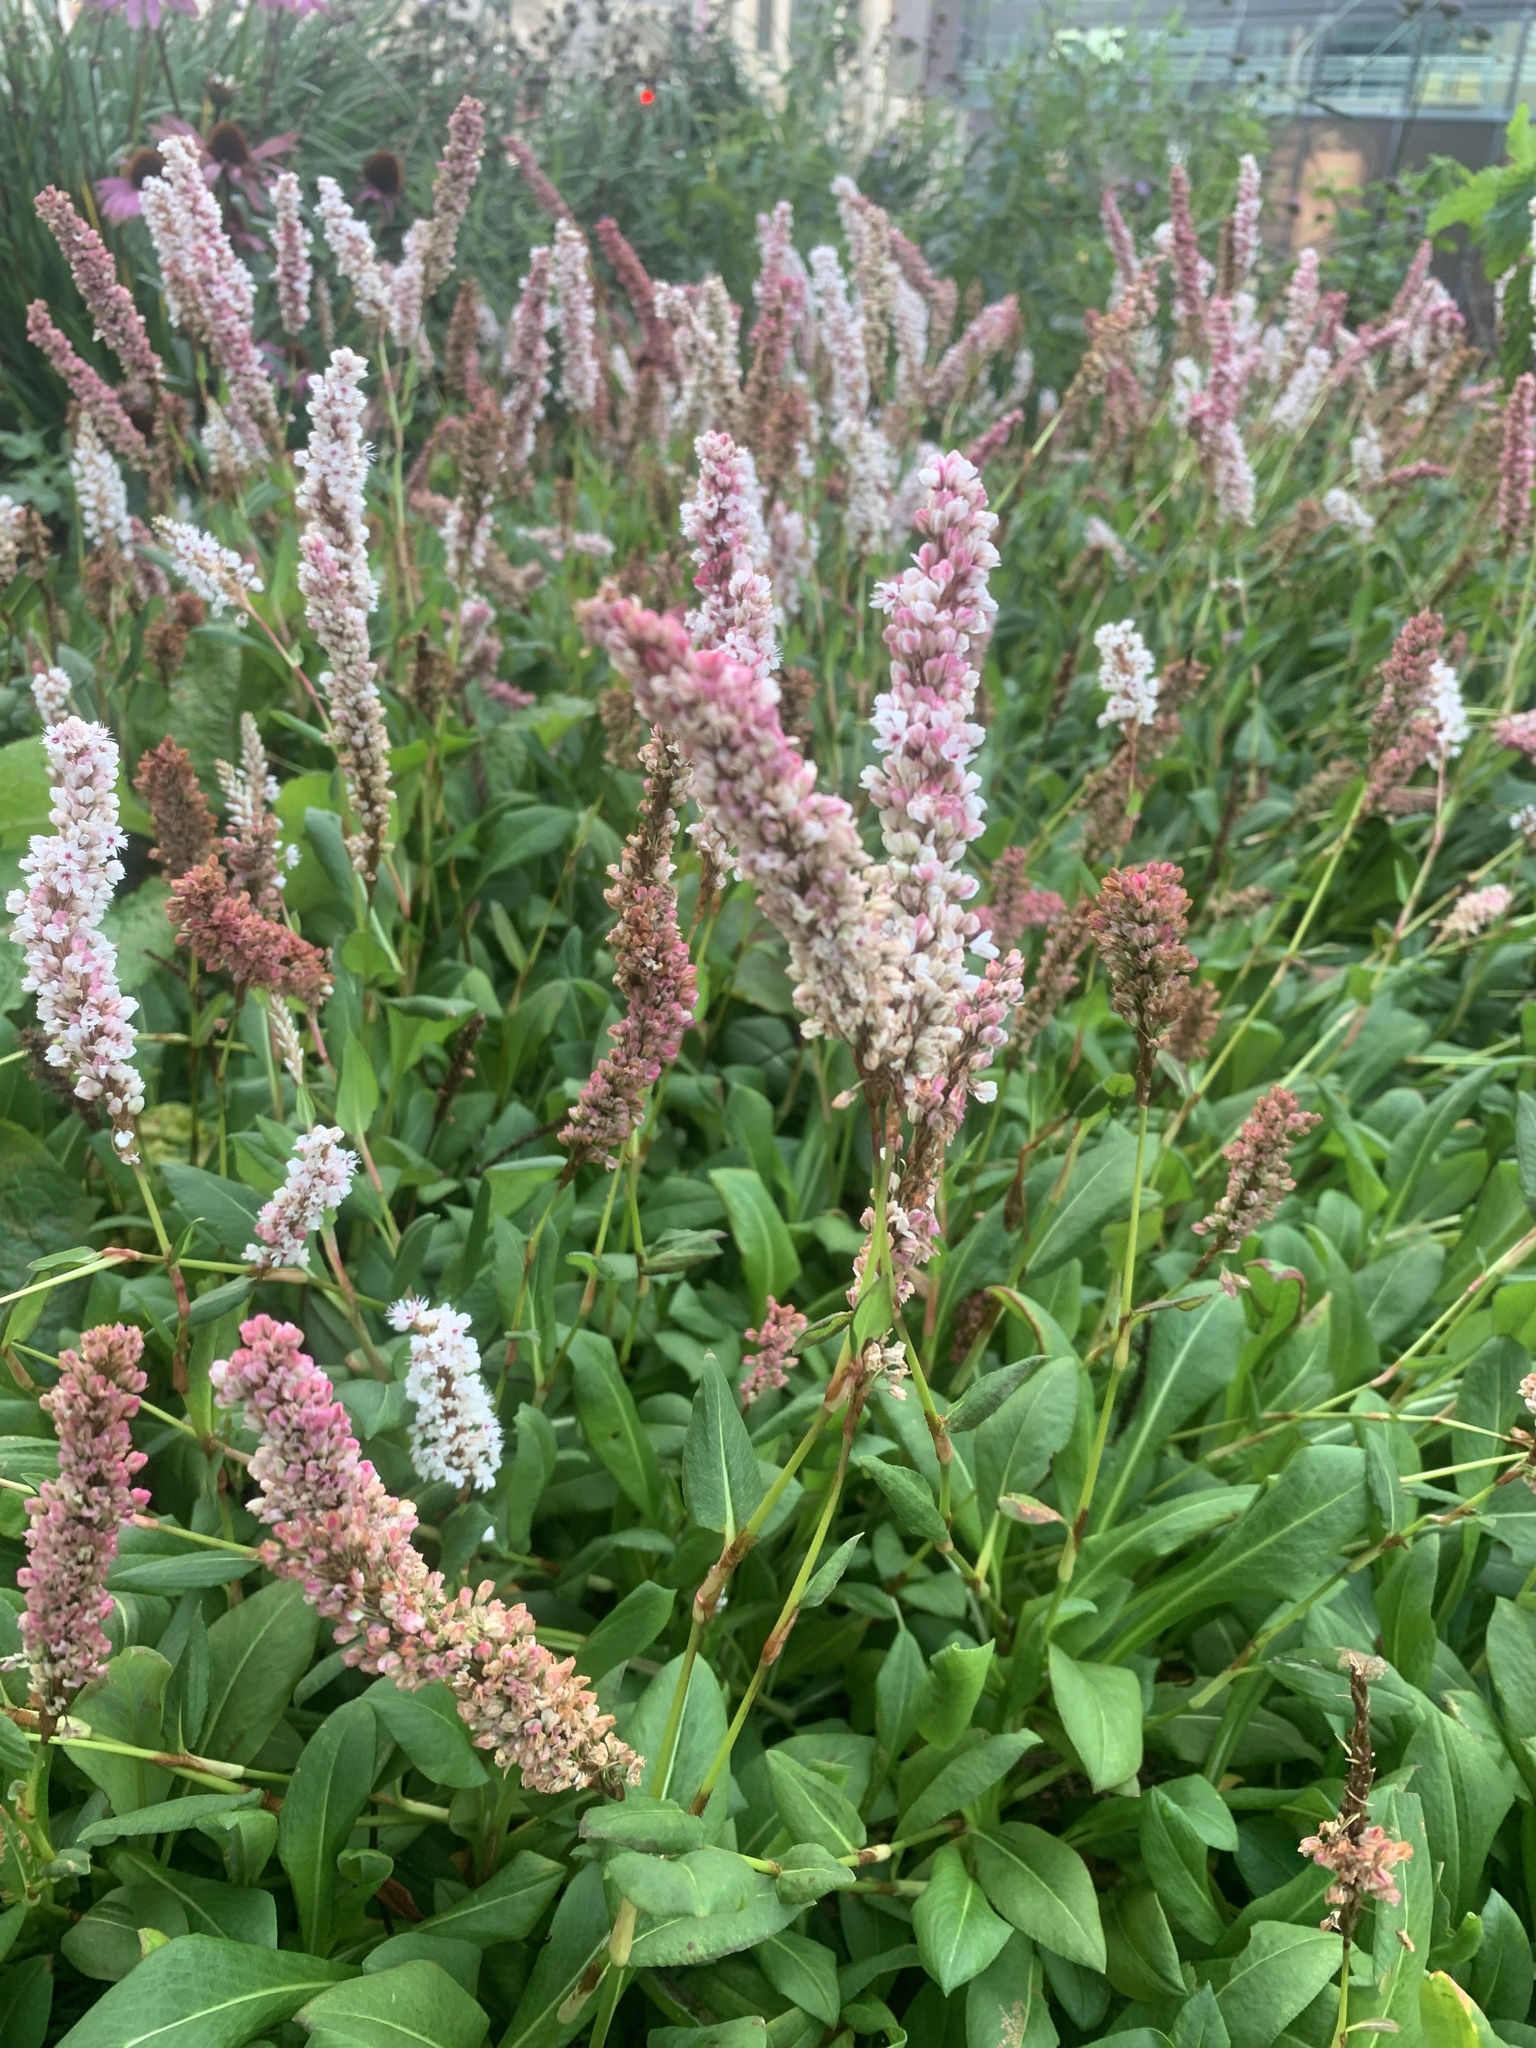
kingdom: Plantae
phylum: Tracheophyta
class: Magnoliopsida
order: Caryophyllales
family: Polygonaceae
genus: Bistorta
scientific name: Bistorta affinis
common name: Himalayan fleeceflower
